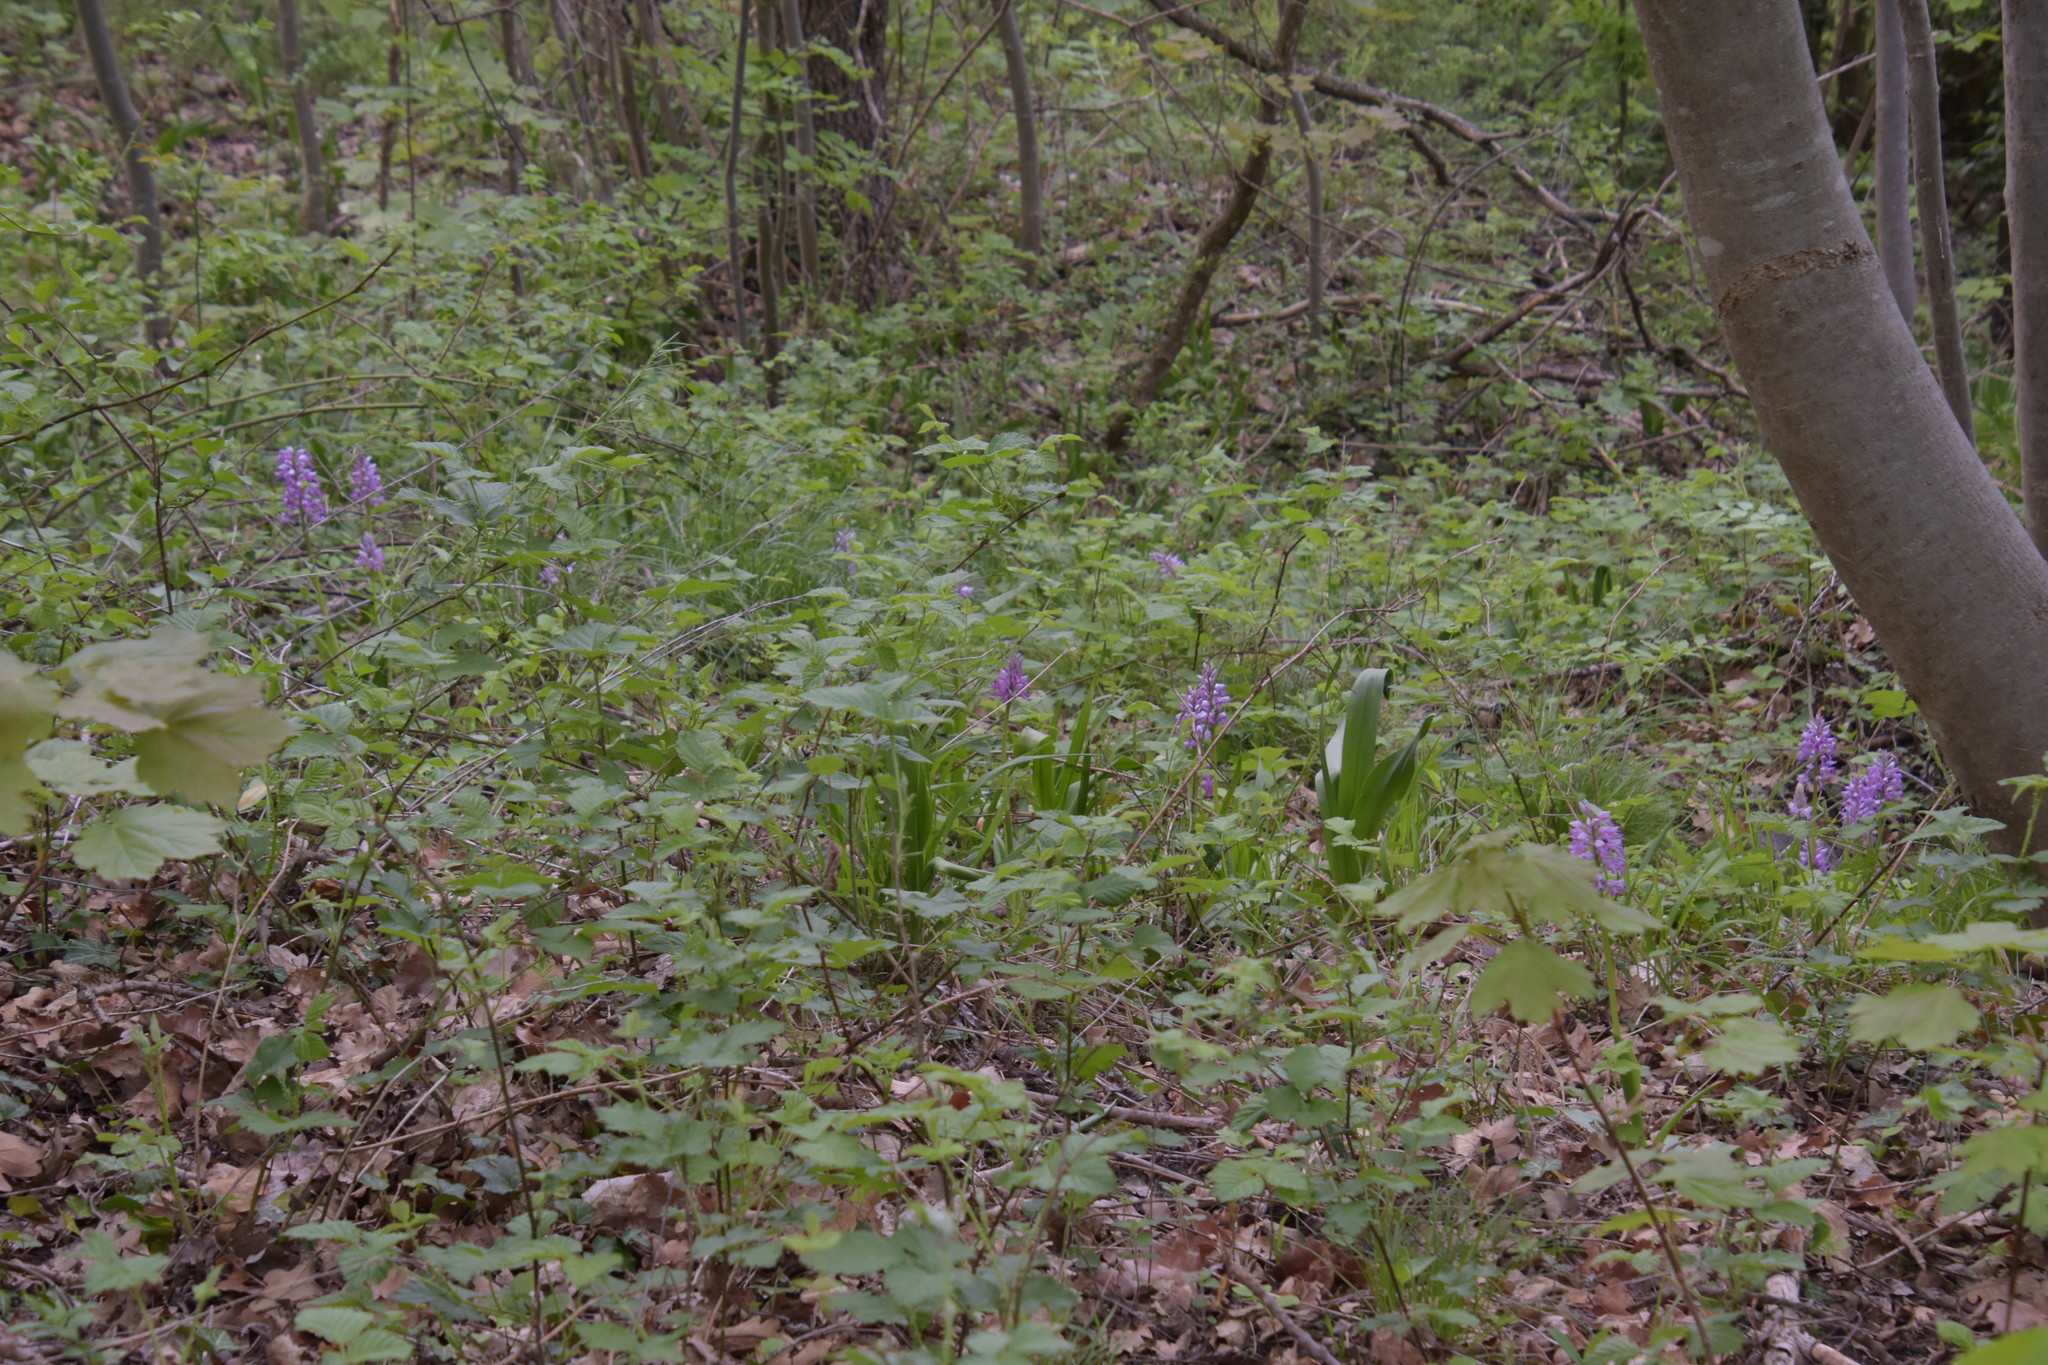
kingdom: Plantae
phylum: Tracheophyta
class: Liliopsida
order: Asparagales
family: Orchidaceae
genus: Orchis
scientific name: Orchis militaris
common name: Military orchid
